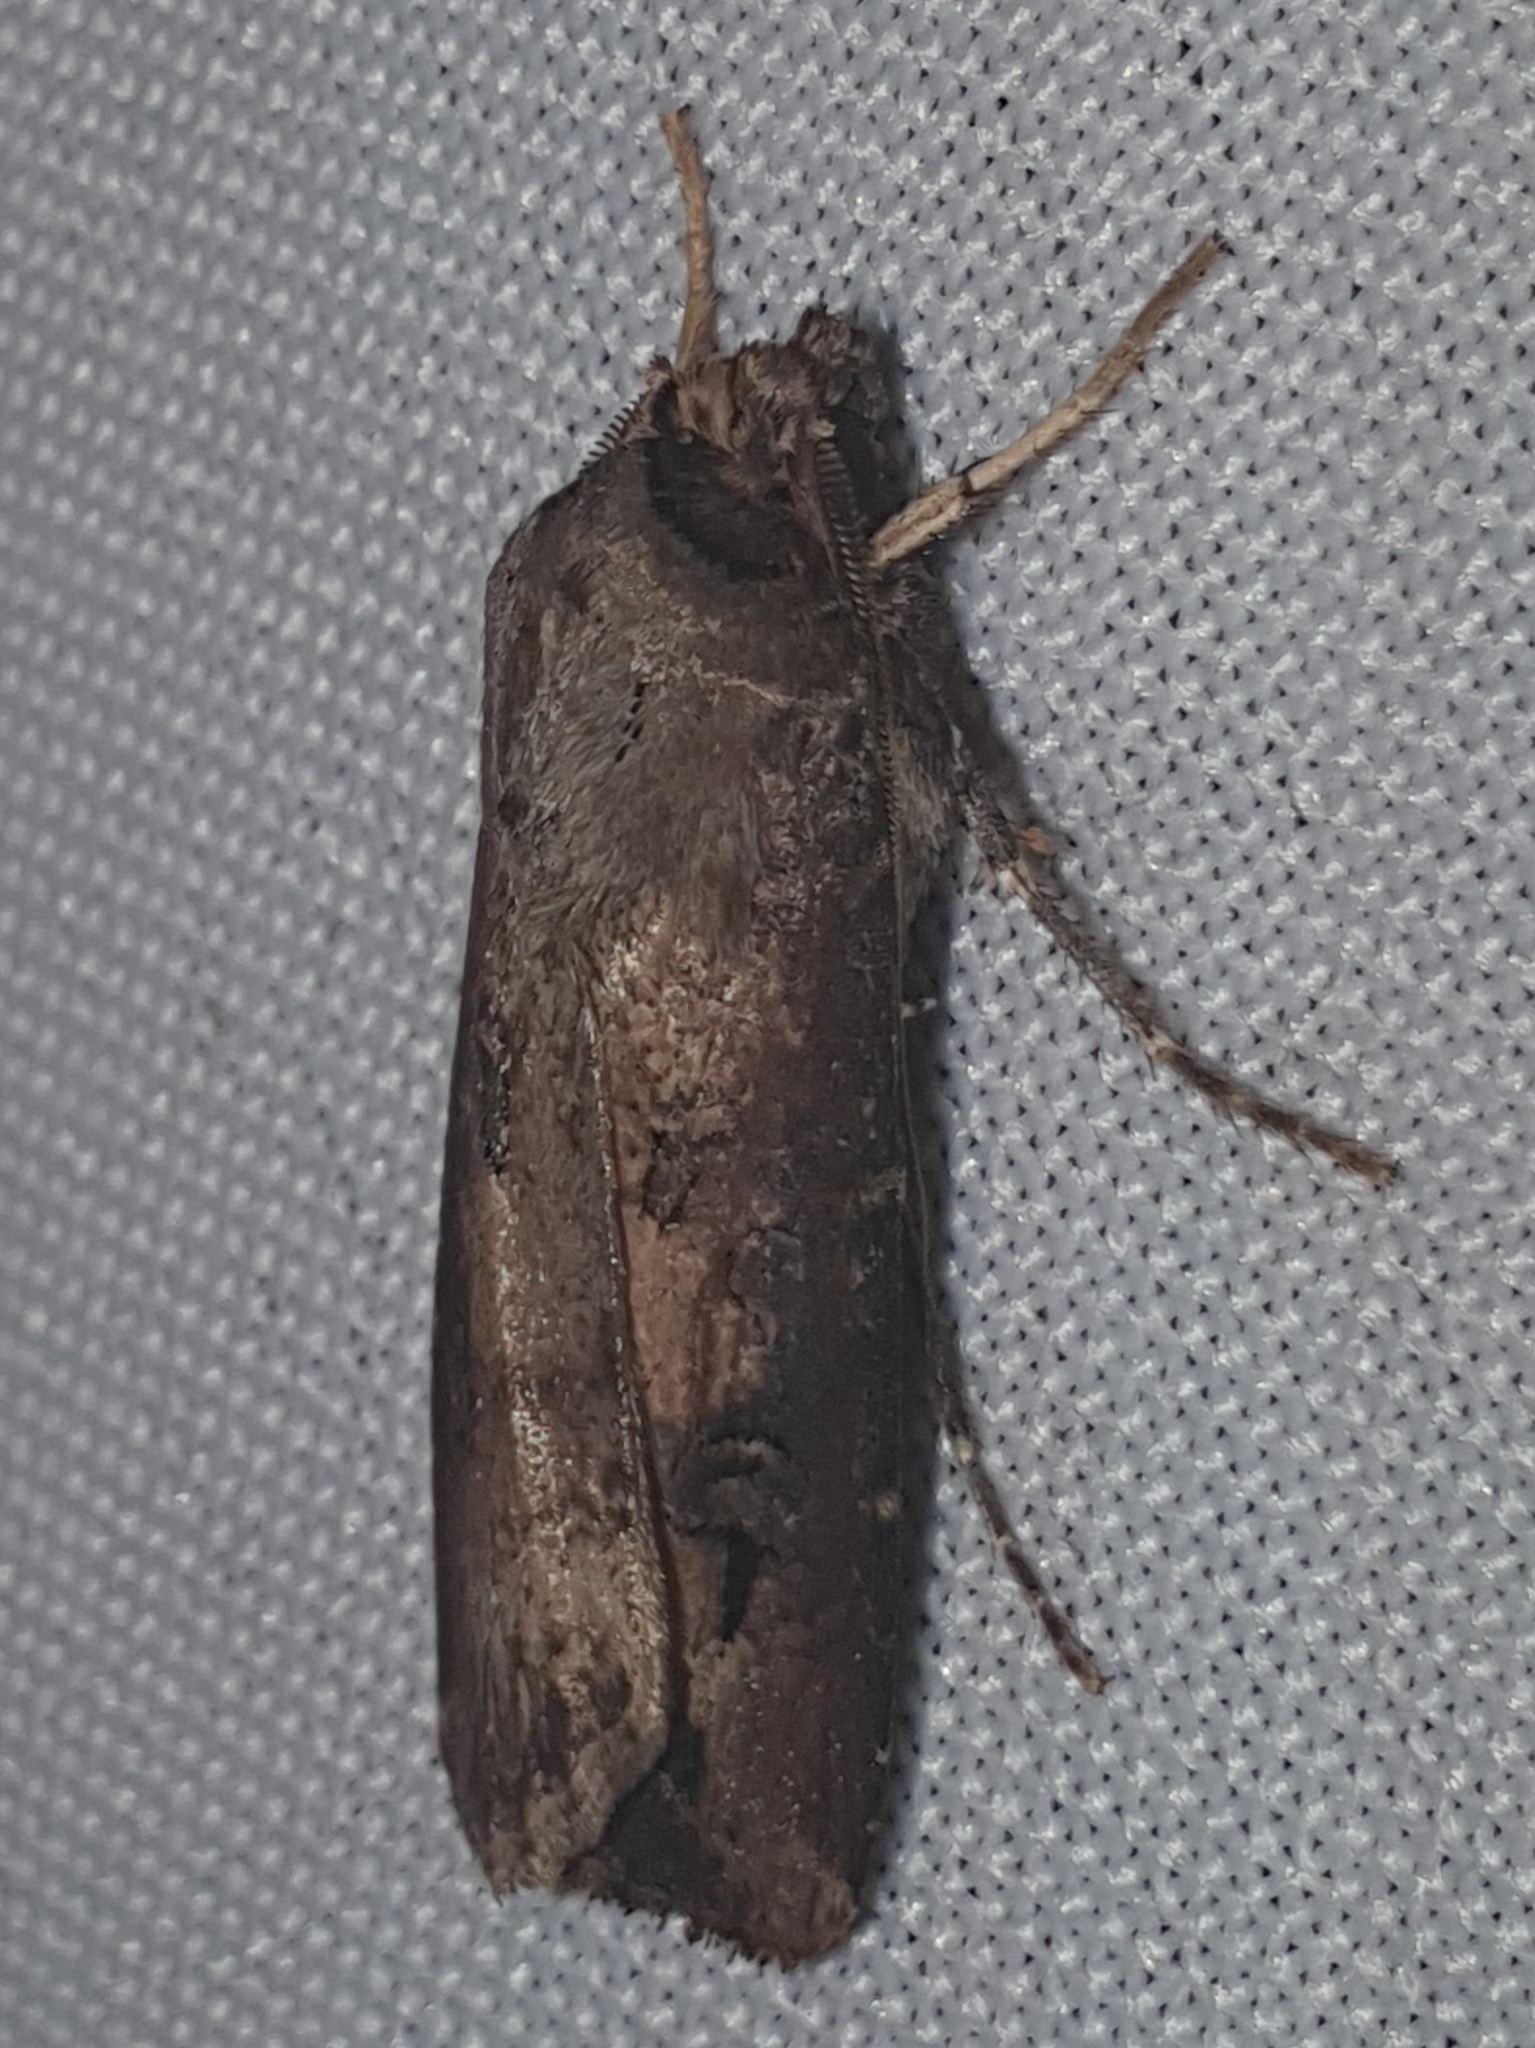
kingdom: Animalia
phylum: Arthropoda
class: Insecta
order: Lepidoptera
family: Noctuidae
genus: Agrotis
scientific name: Agrotis ipsilon
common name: Dark sword-grass
